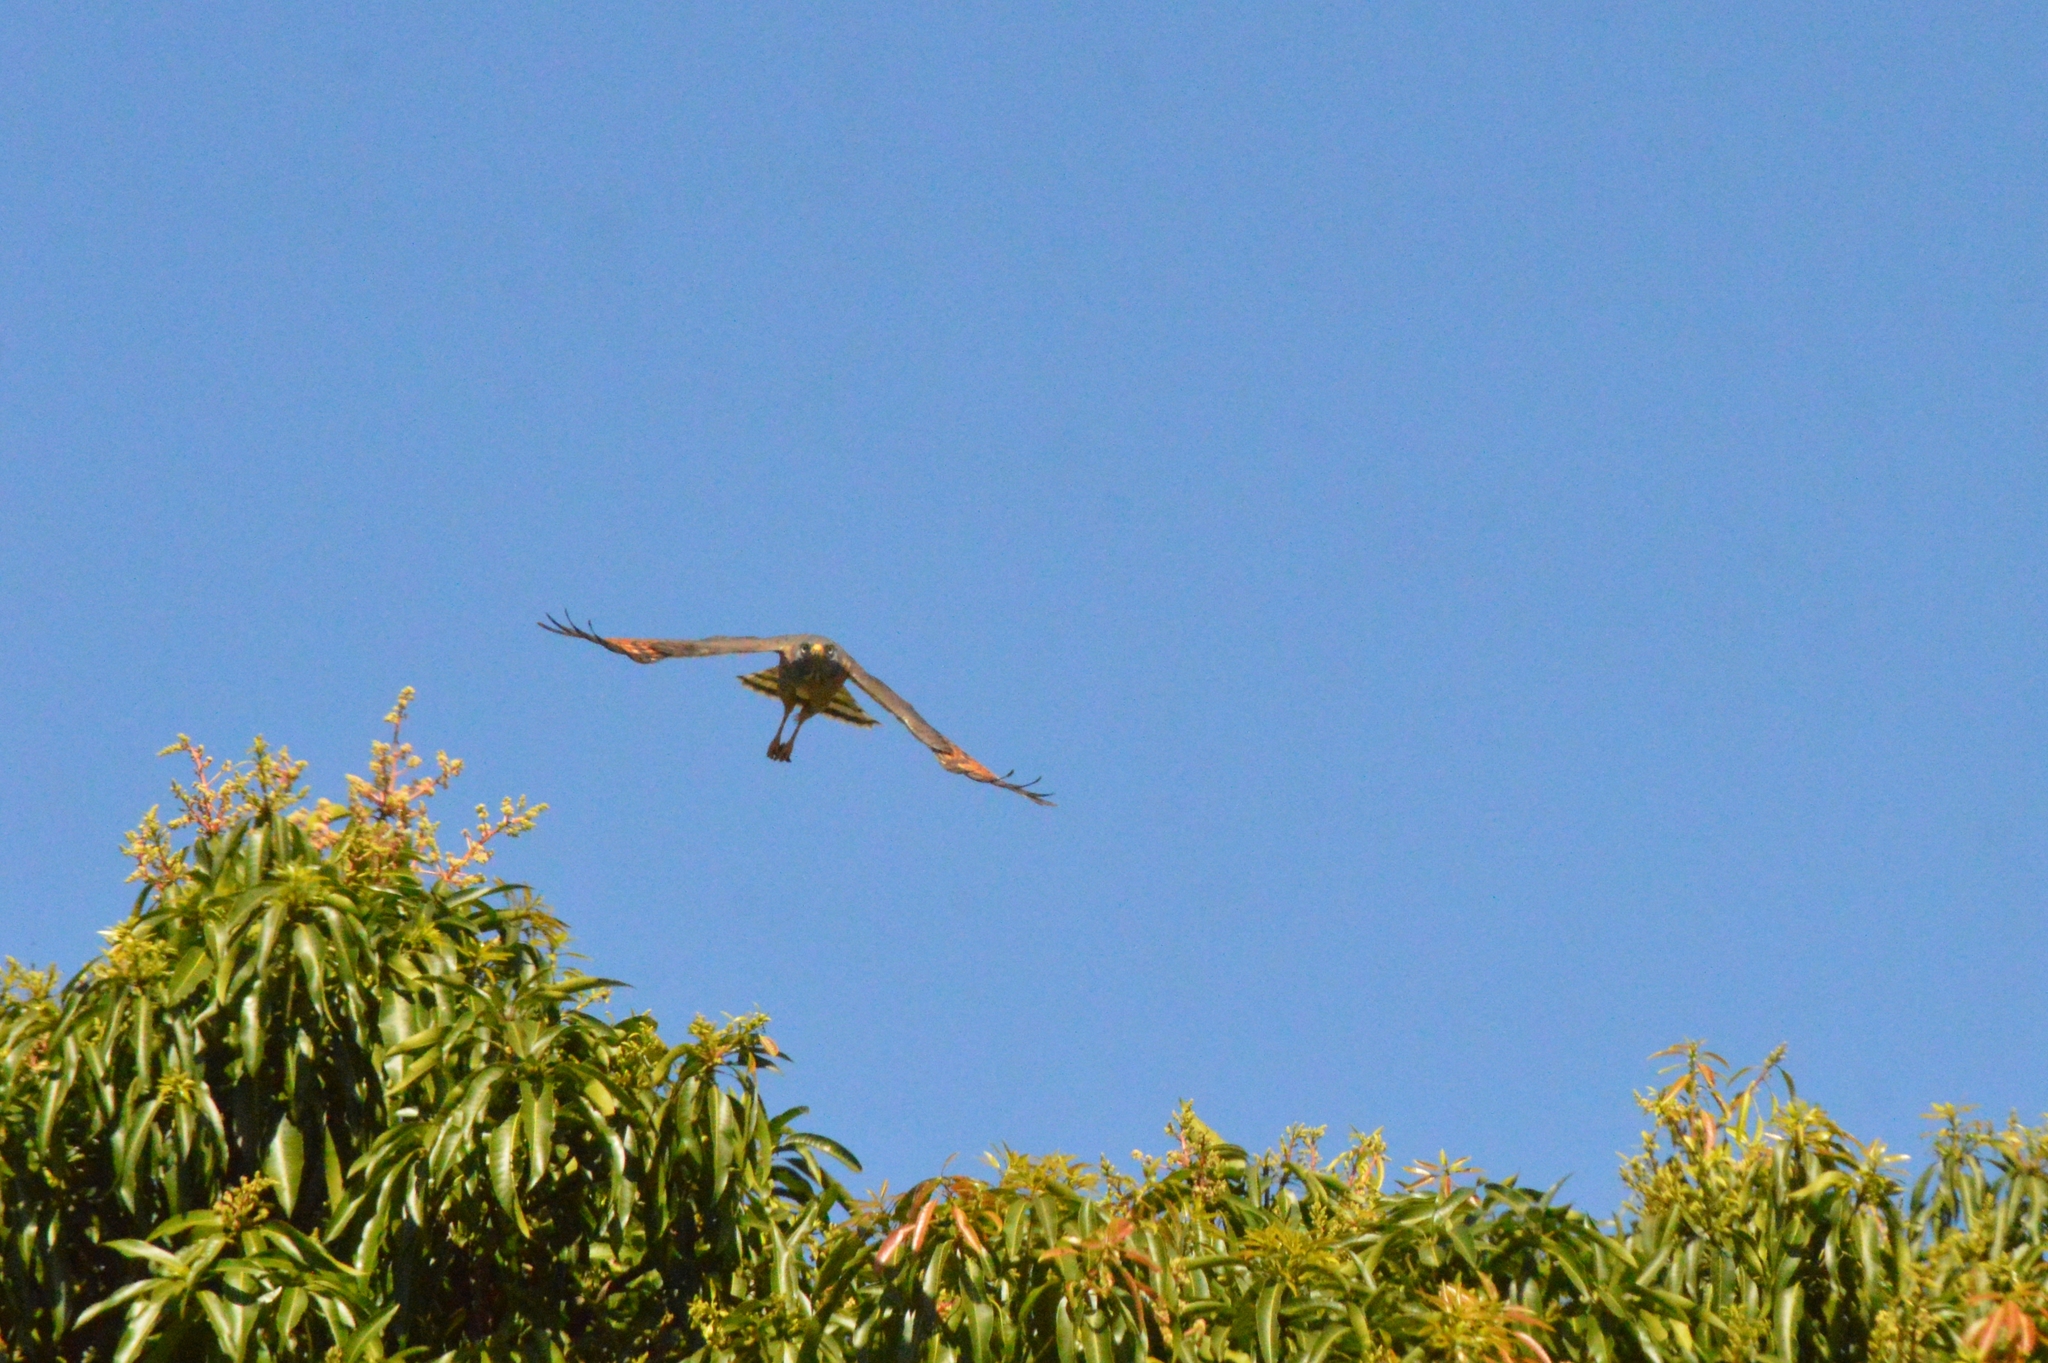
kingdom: Animalia
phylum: Chordata
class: Aves
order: Accipitriformes
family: Accipitridae
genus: Rupornis
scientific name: Rupornis magnirostris
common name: Roadside hawk
